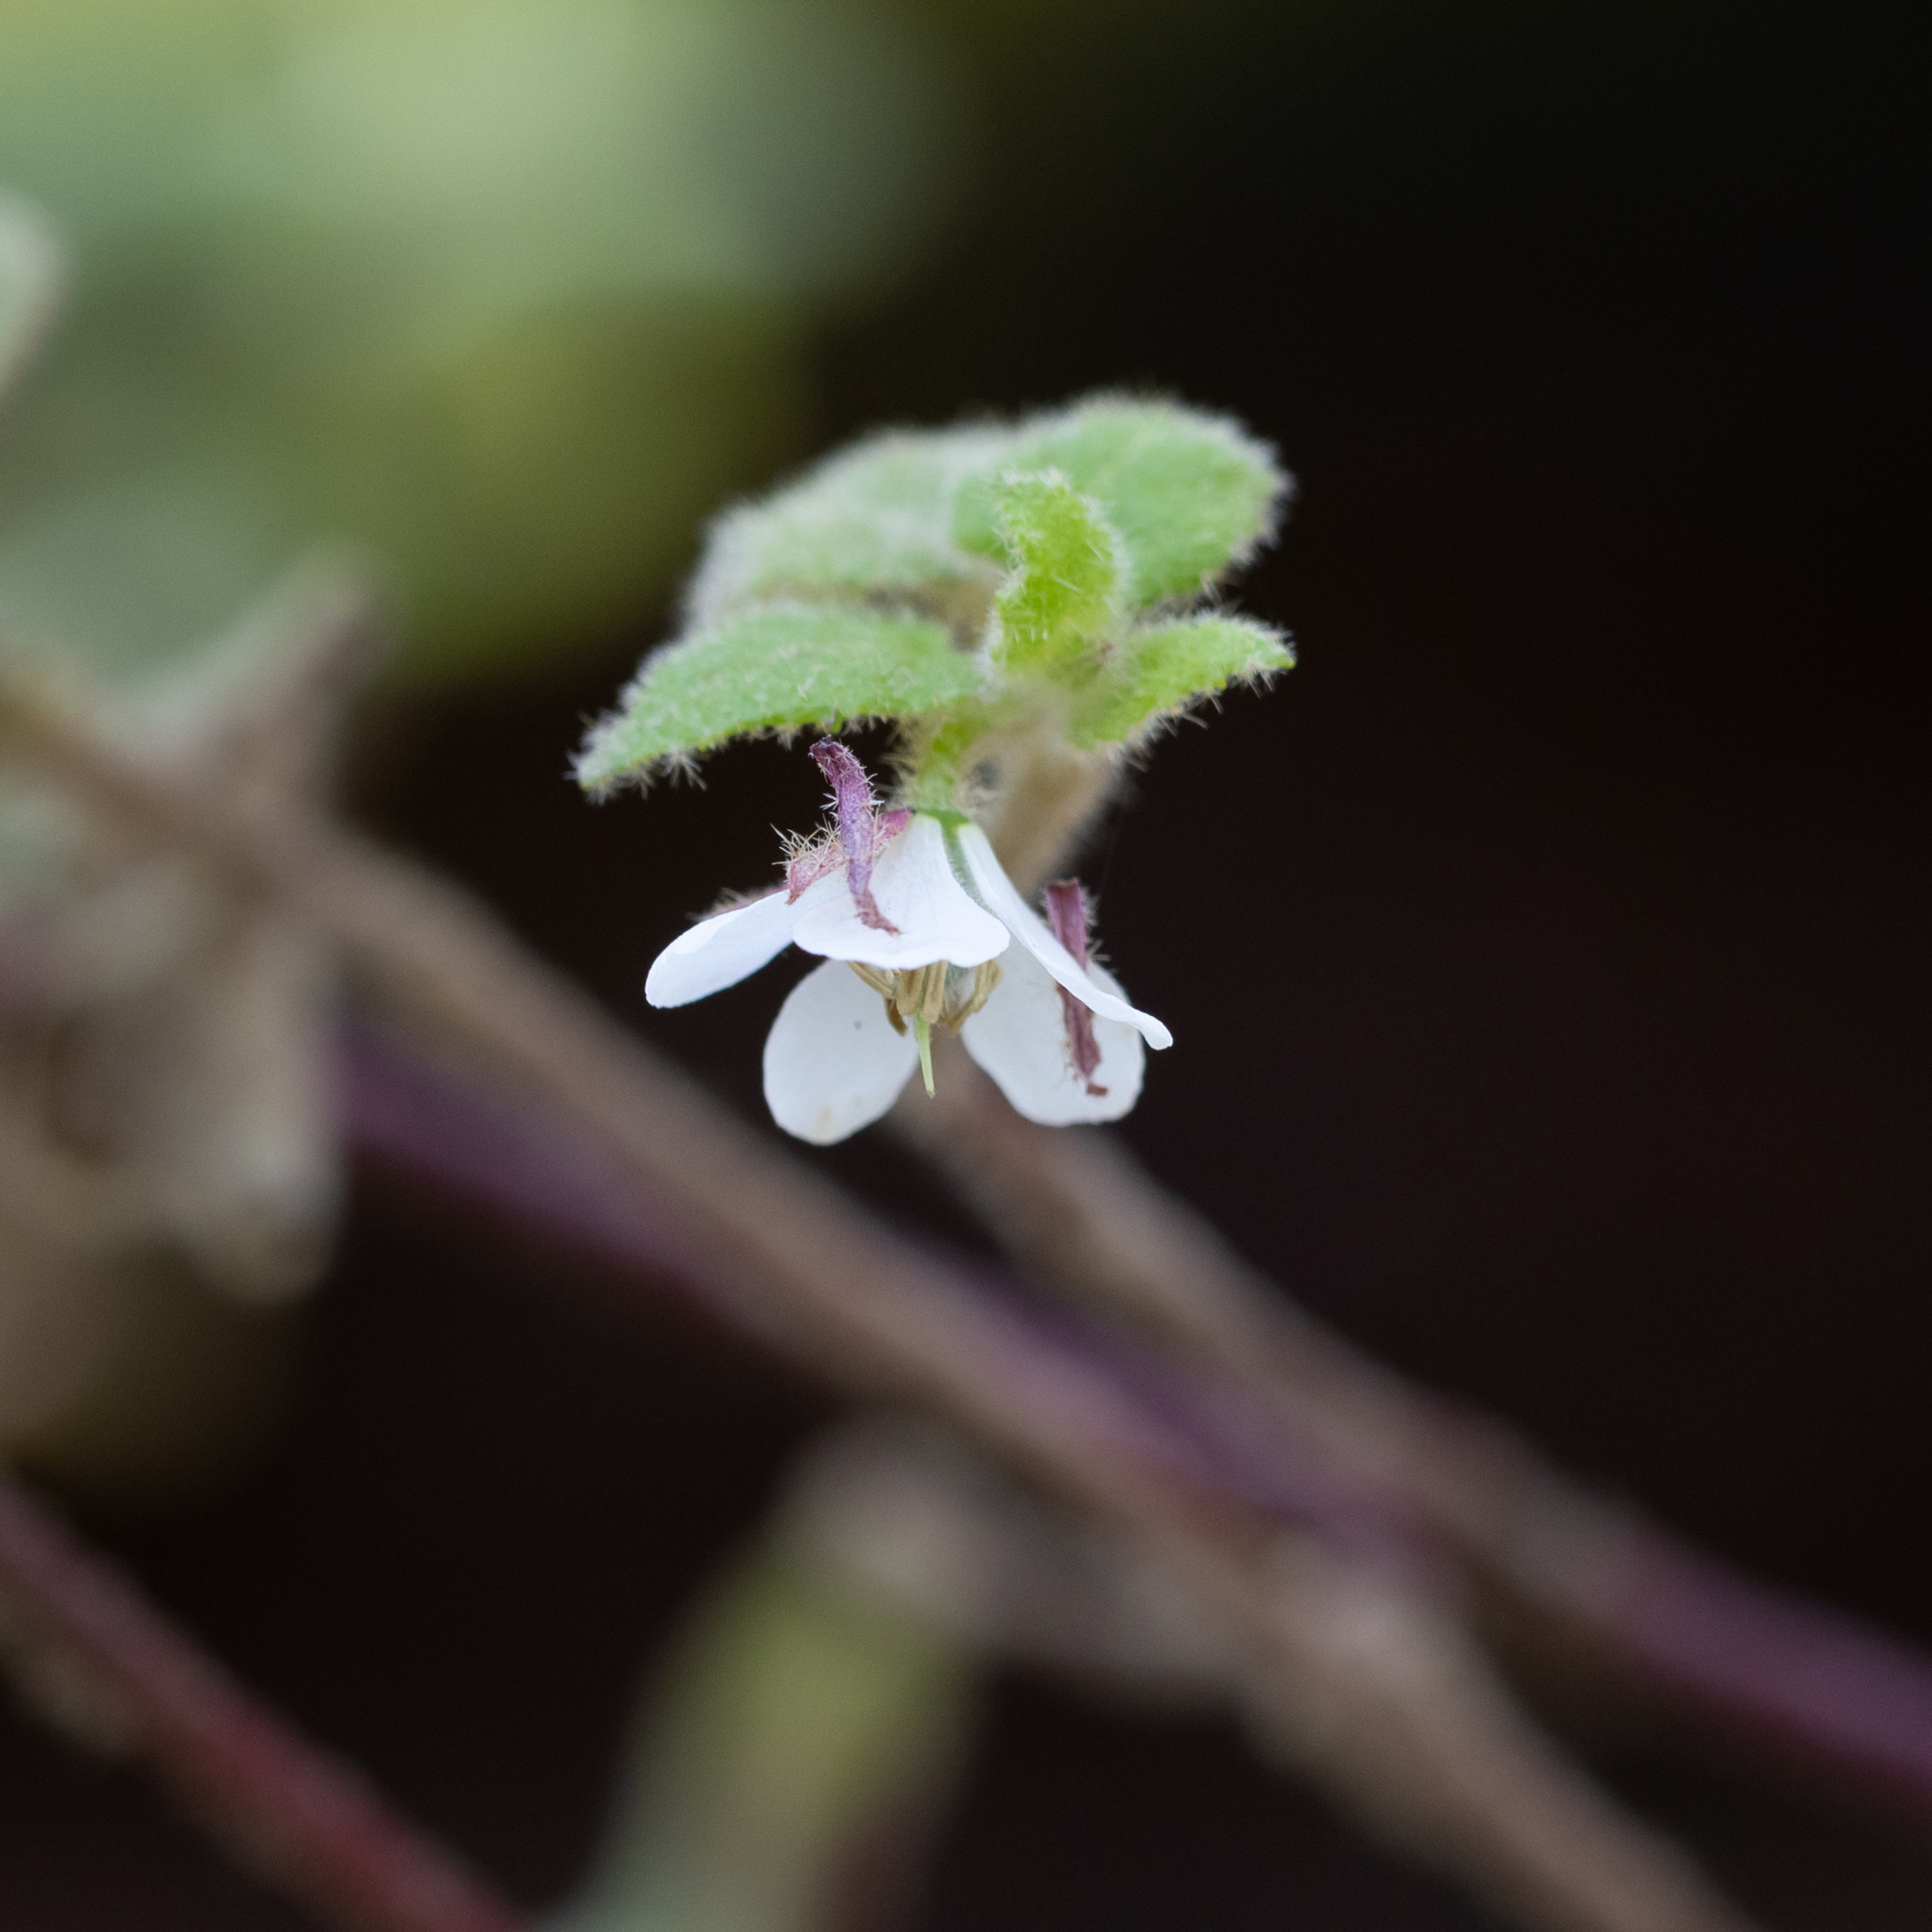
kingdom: Plantae
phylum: Tracheophyta
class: Magnoliopsida
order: Oxalidales
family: Elaeocarpaceae
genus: Tremandra
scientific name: Tremandra diffusa
